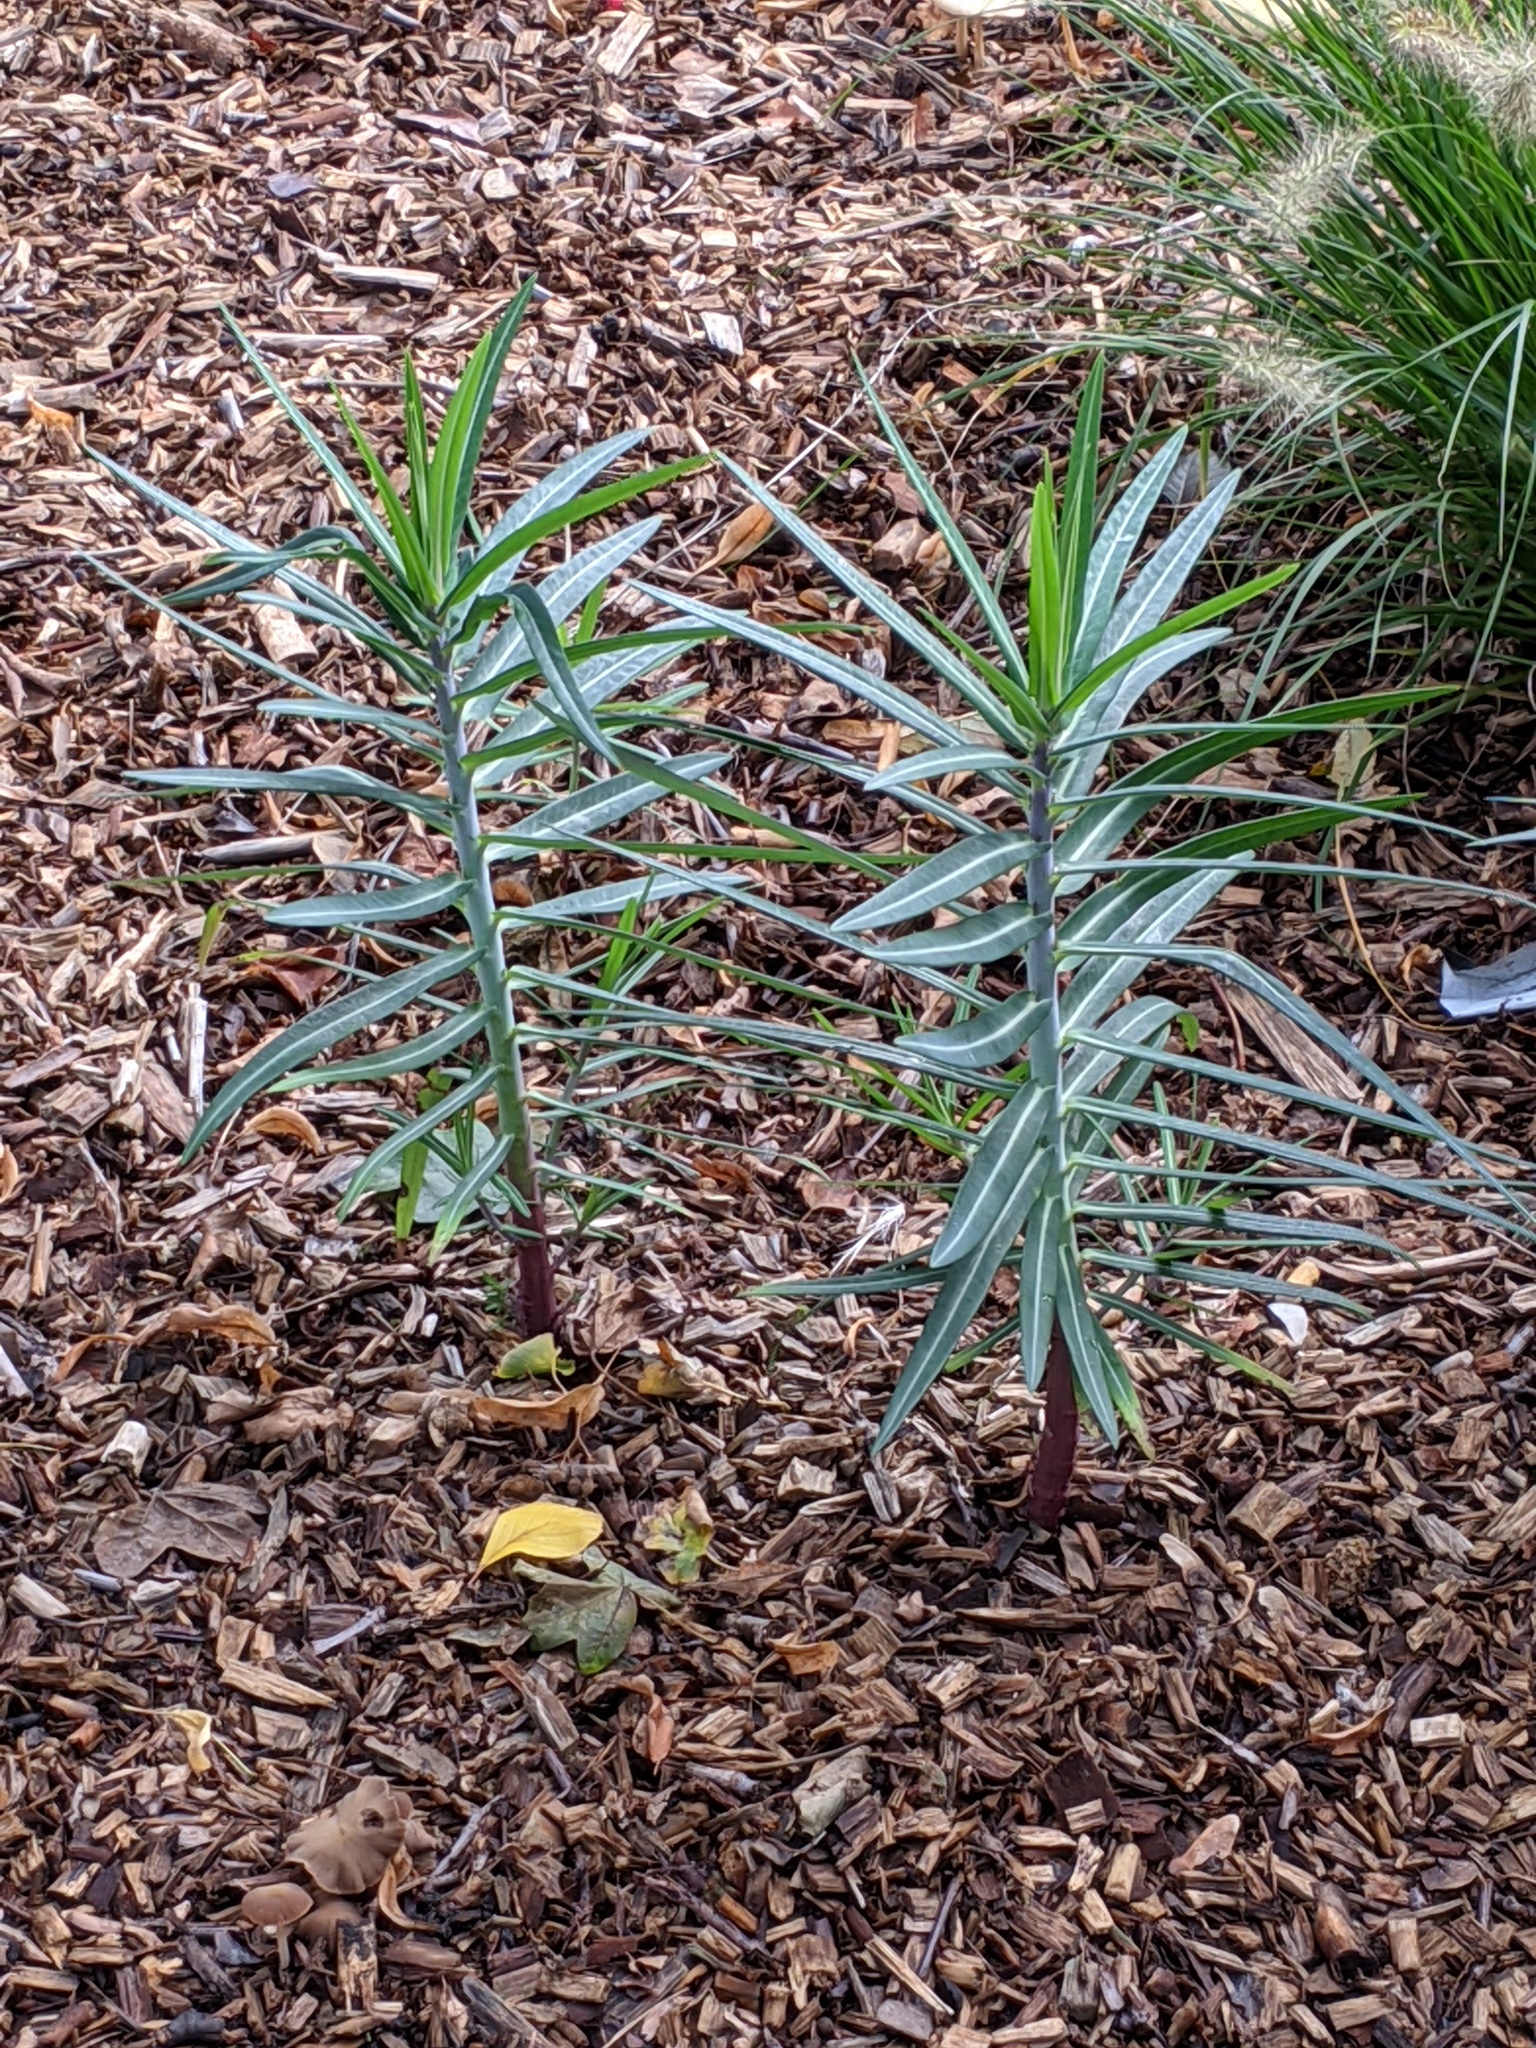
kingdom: Plantae
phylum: Tracheophyta
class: Magnoliopsida
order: Malpighiales
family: Euphorbiaceae
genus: Euphorbia
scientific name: Euphorbia lathyris
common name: Caper spurge
